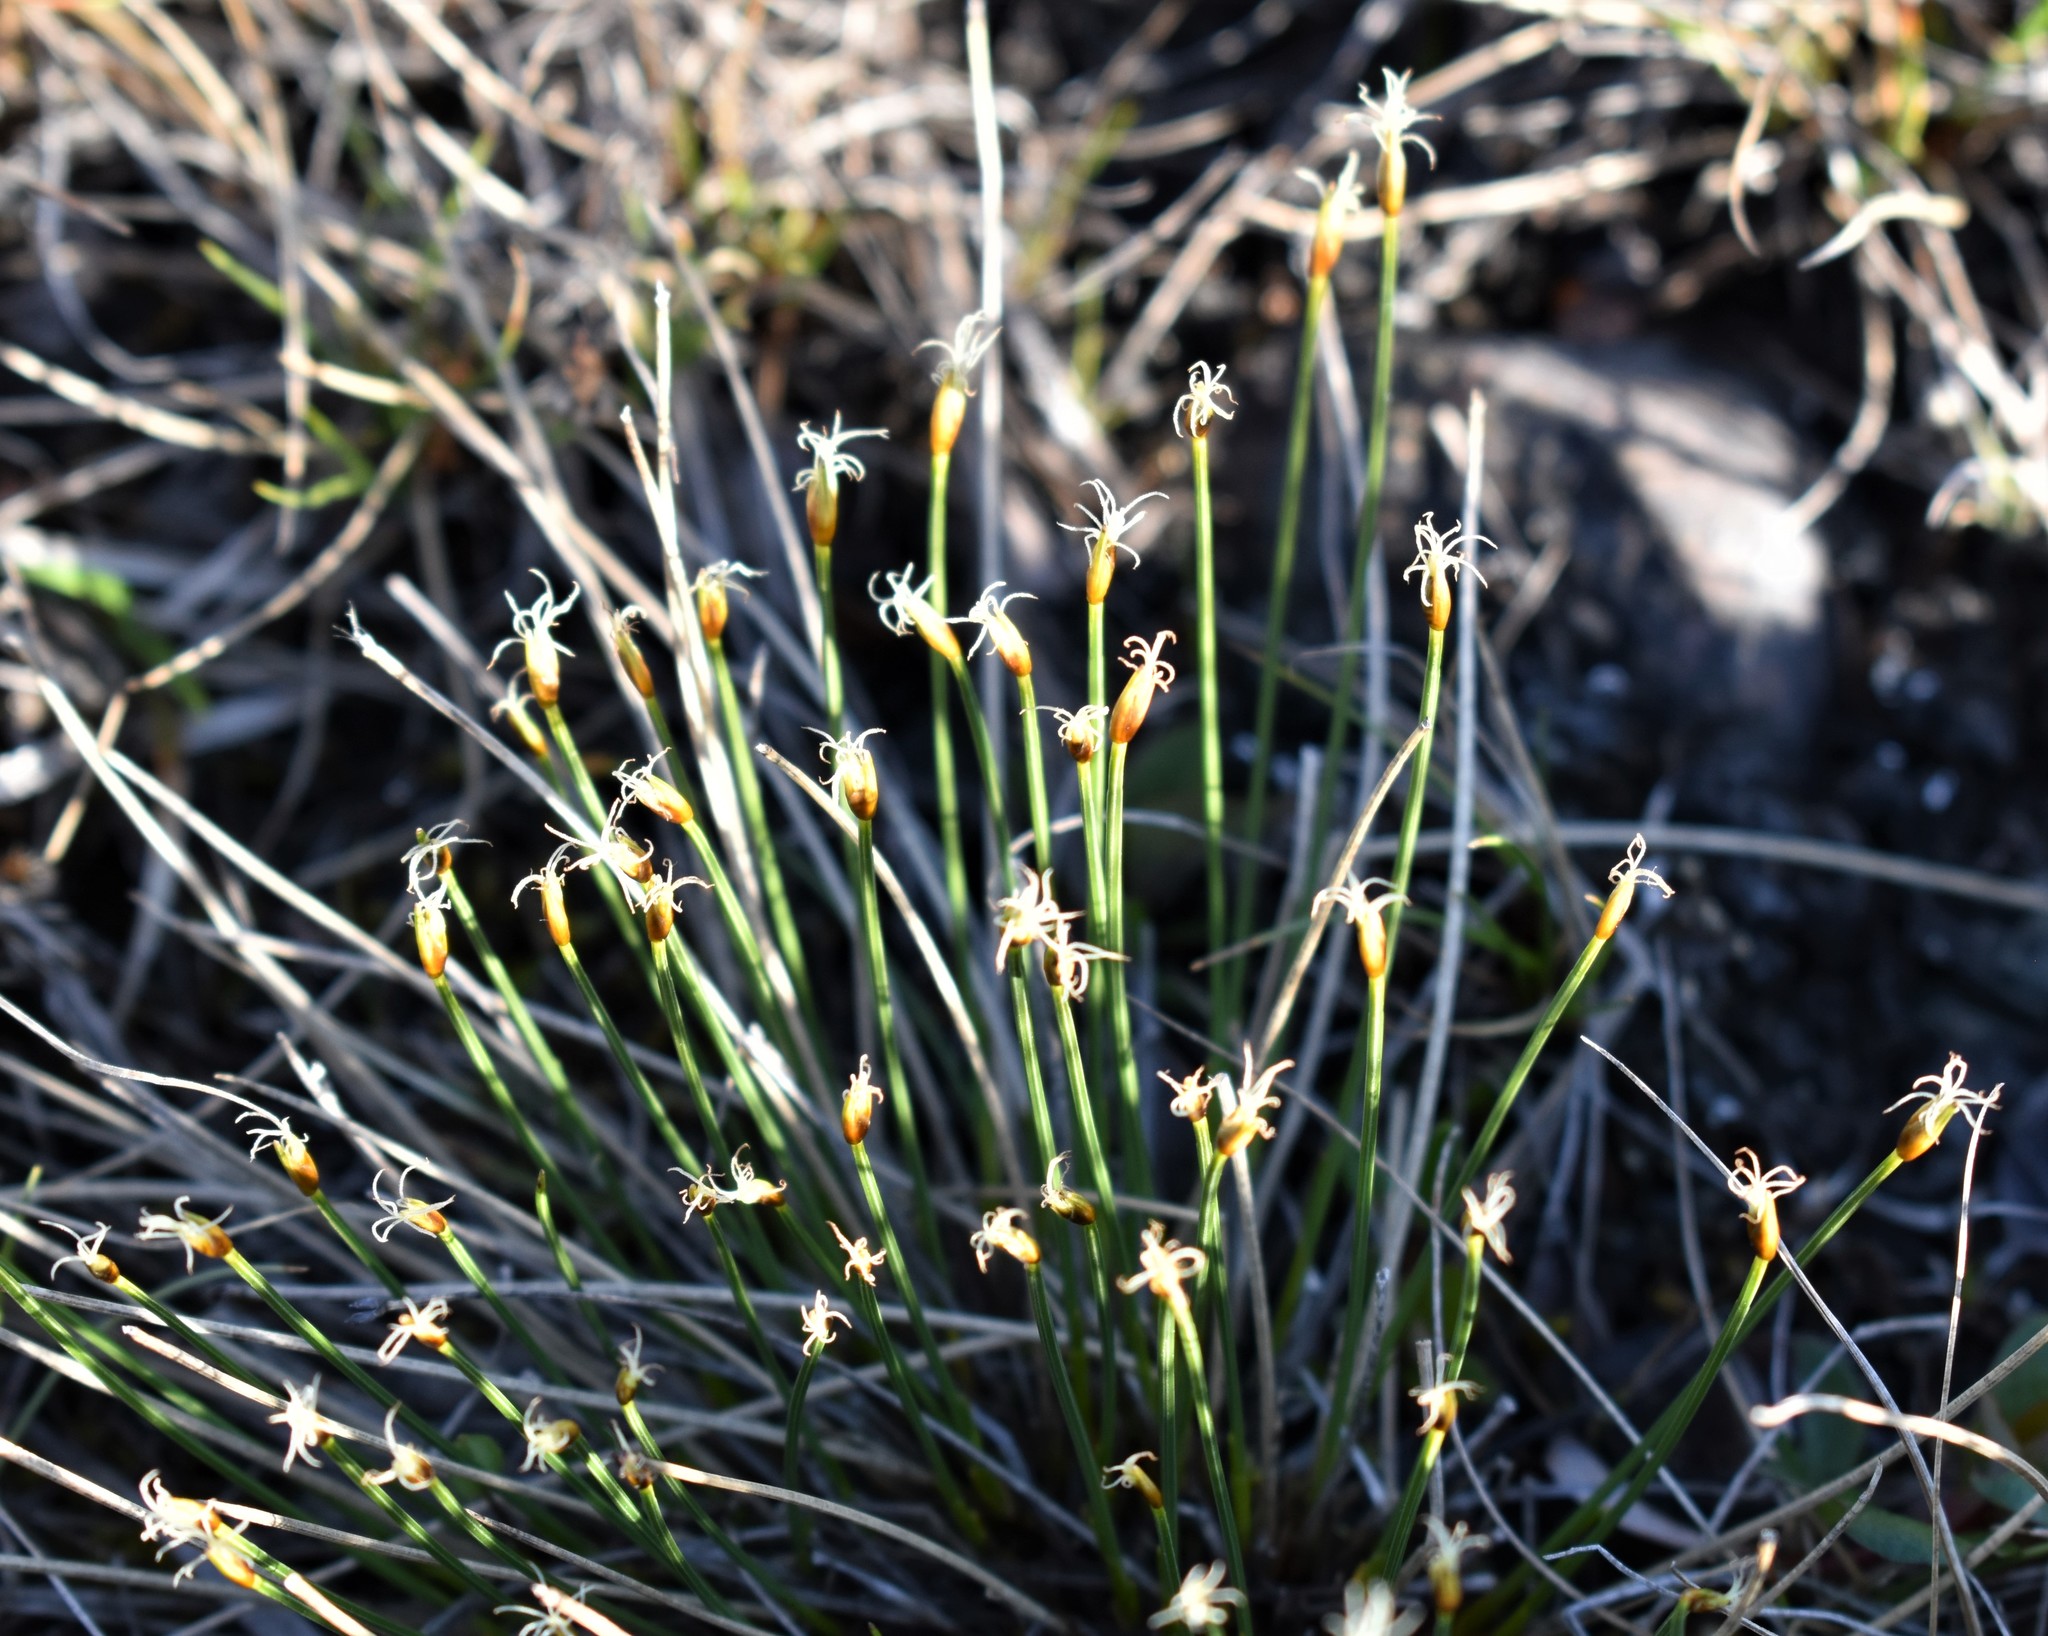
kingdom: Plantae
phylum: Tracheophyta
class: Liliopsida
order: Poales
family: Cyperaceae
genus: Trichophorum
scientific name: Trichophorum cespitosum
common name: Cespitose bulrush
